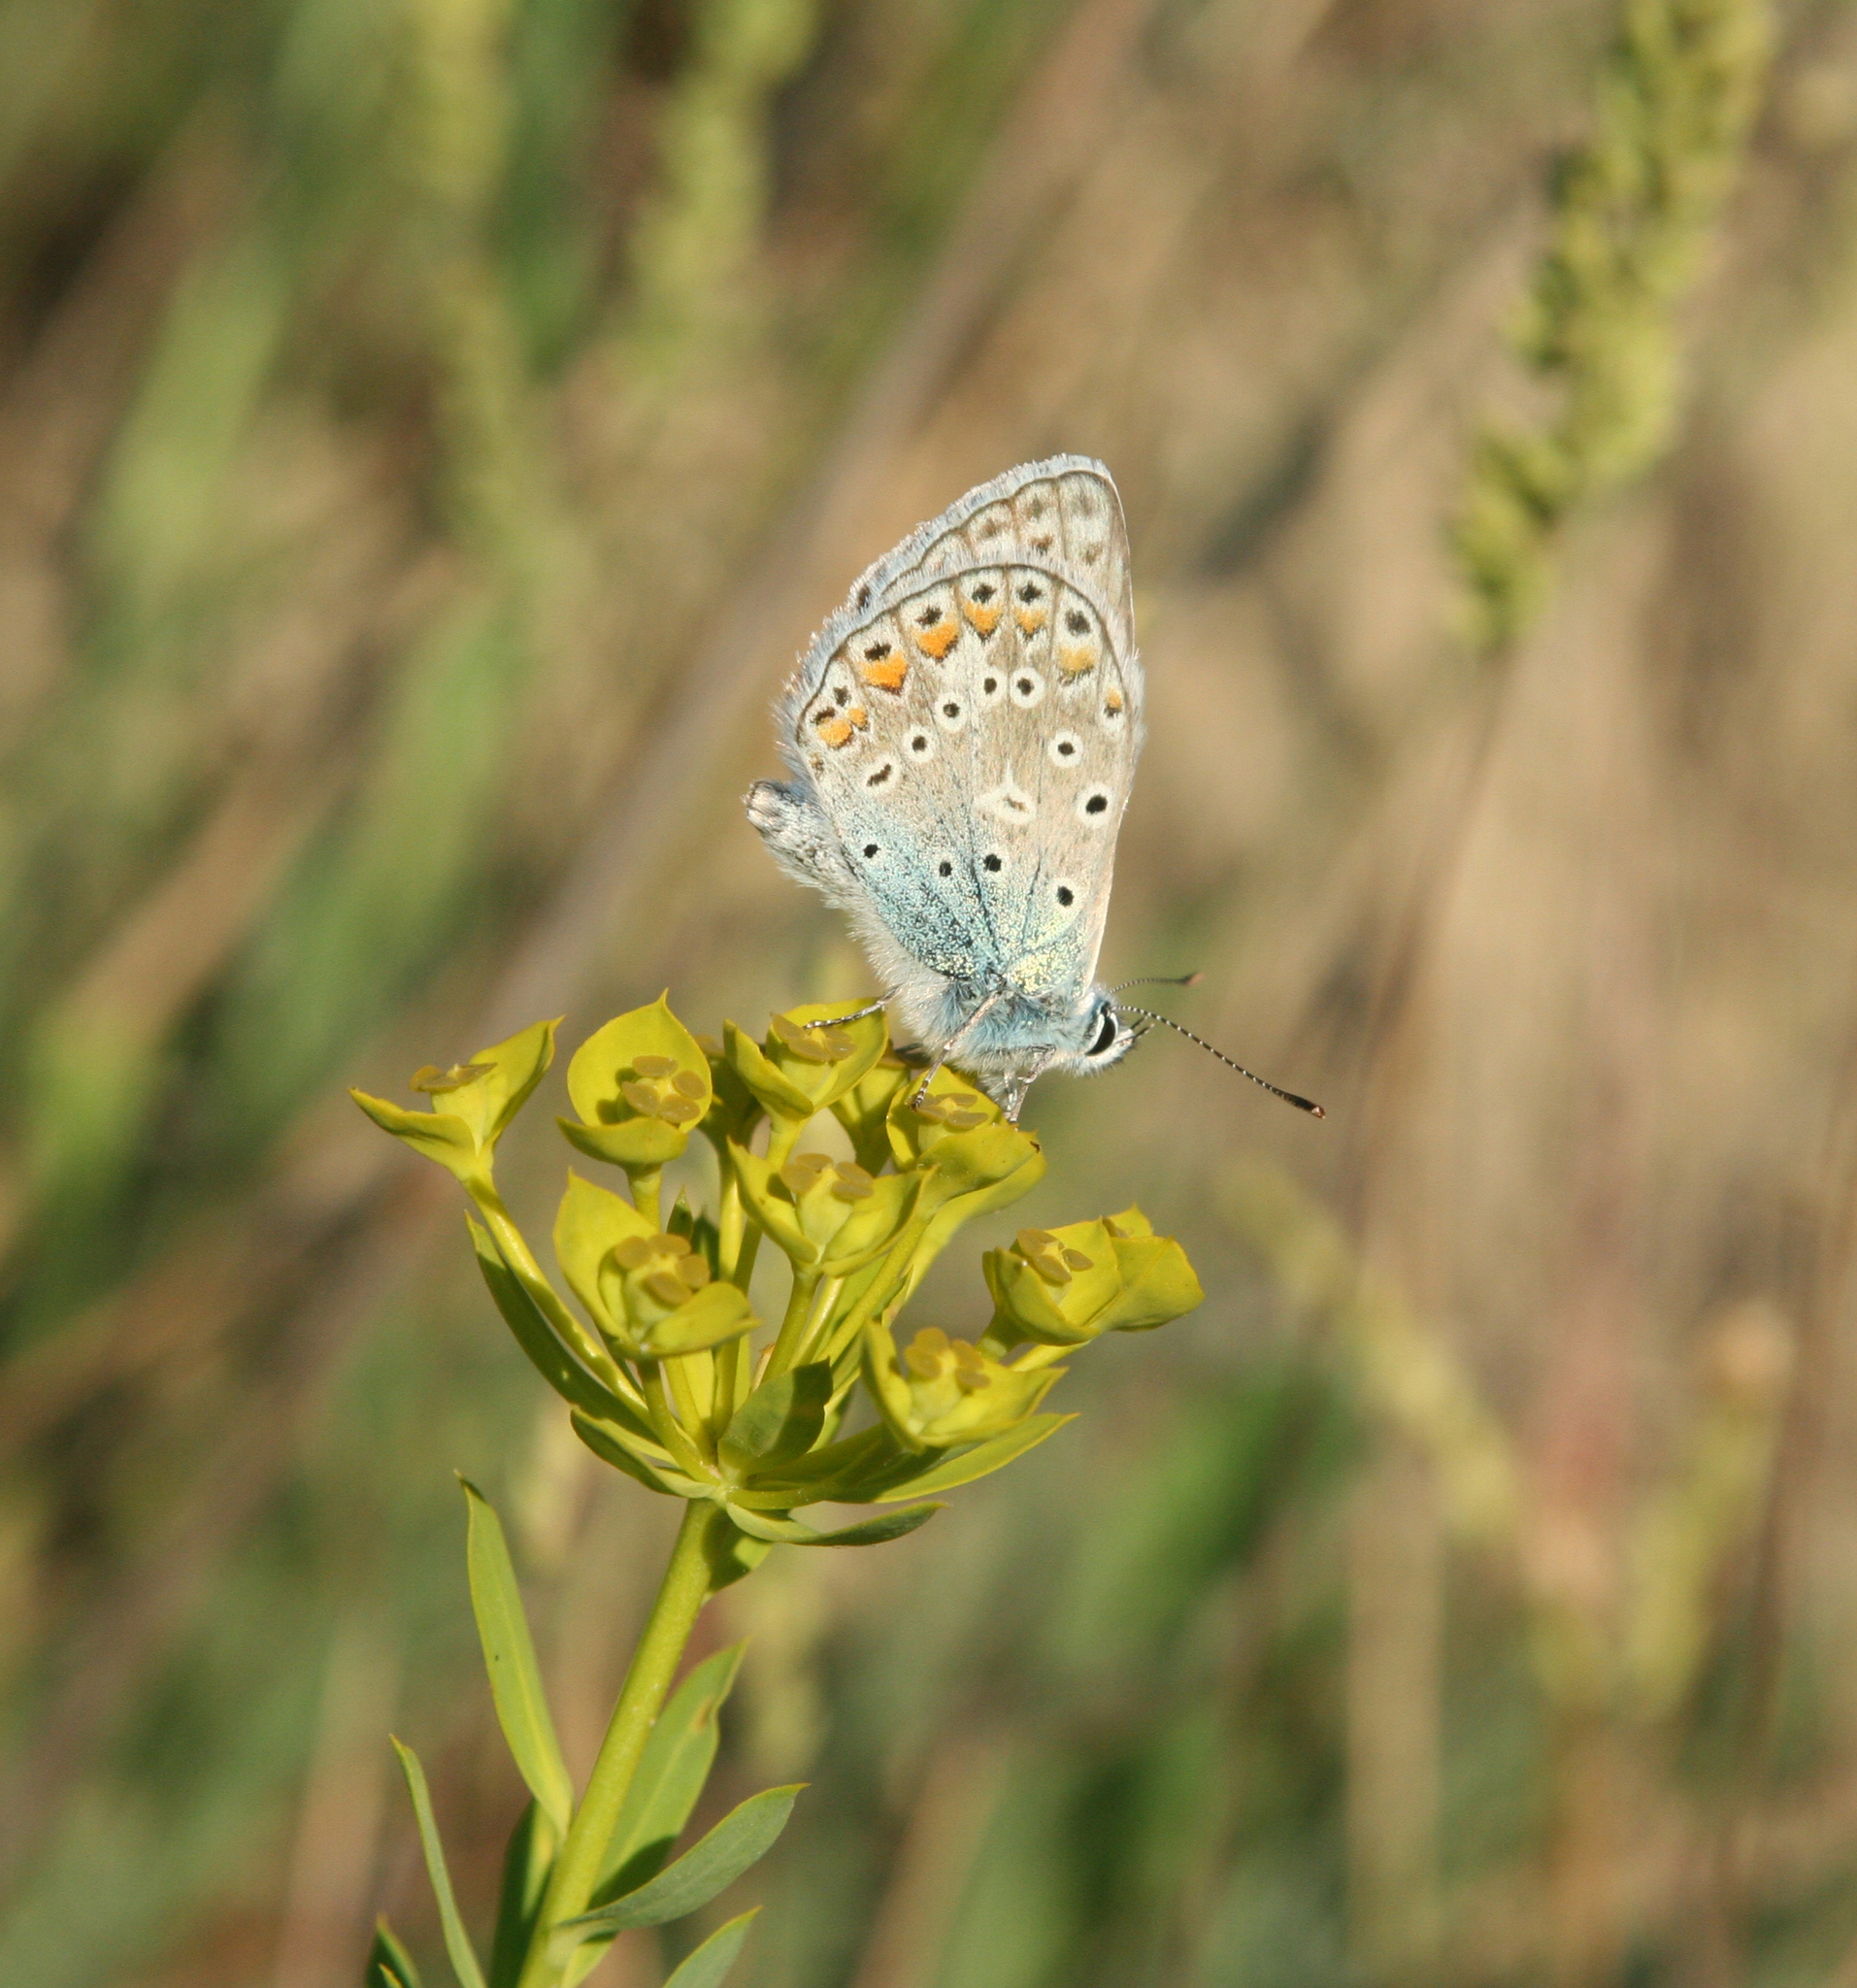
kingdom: Animalia
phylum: Arthropoda
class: Insecta
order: Lepidoptera
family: Lycaenidae
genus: Polyommatus
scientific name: Polyommatus icarus
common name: Common blue
